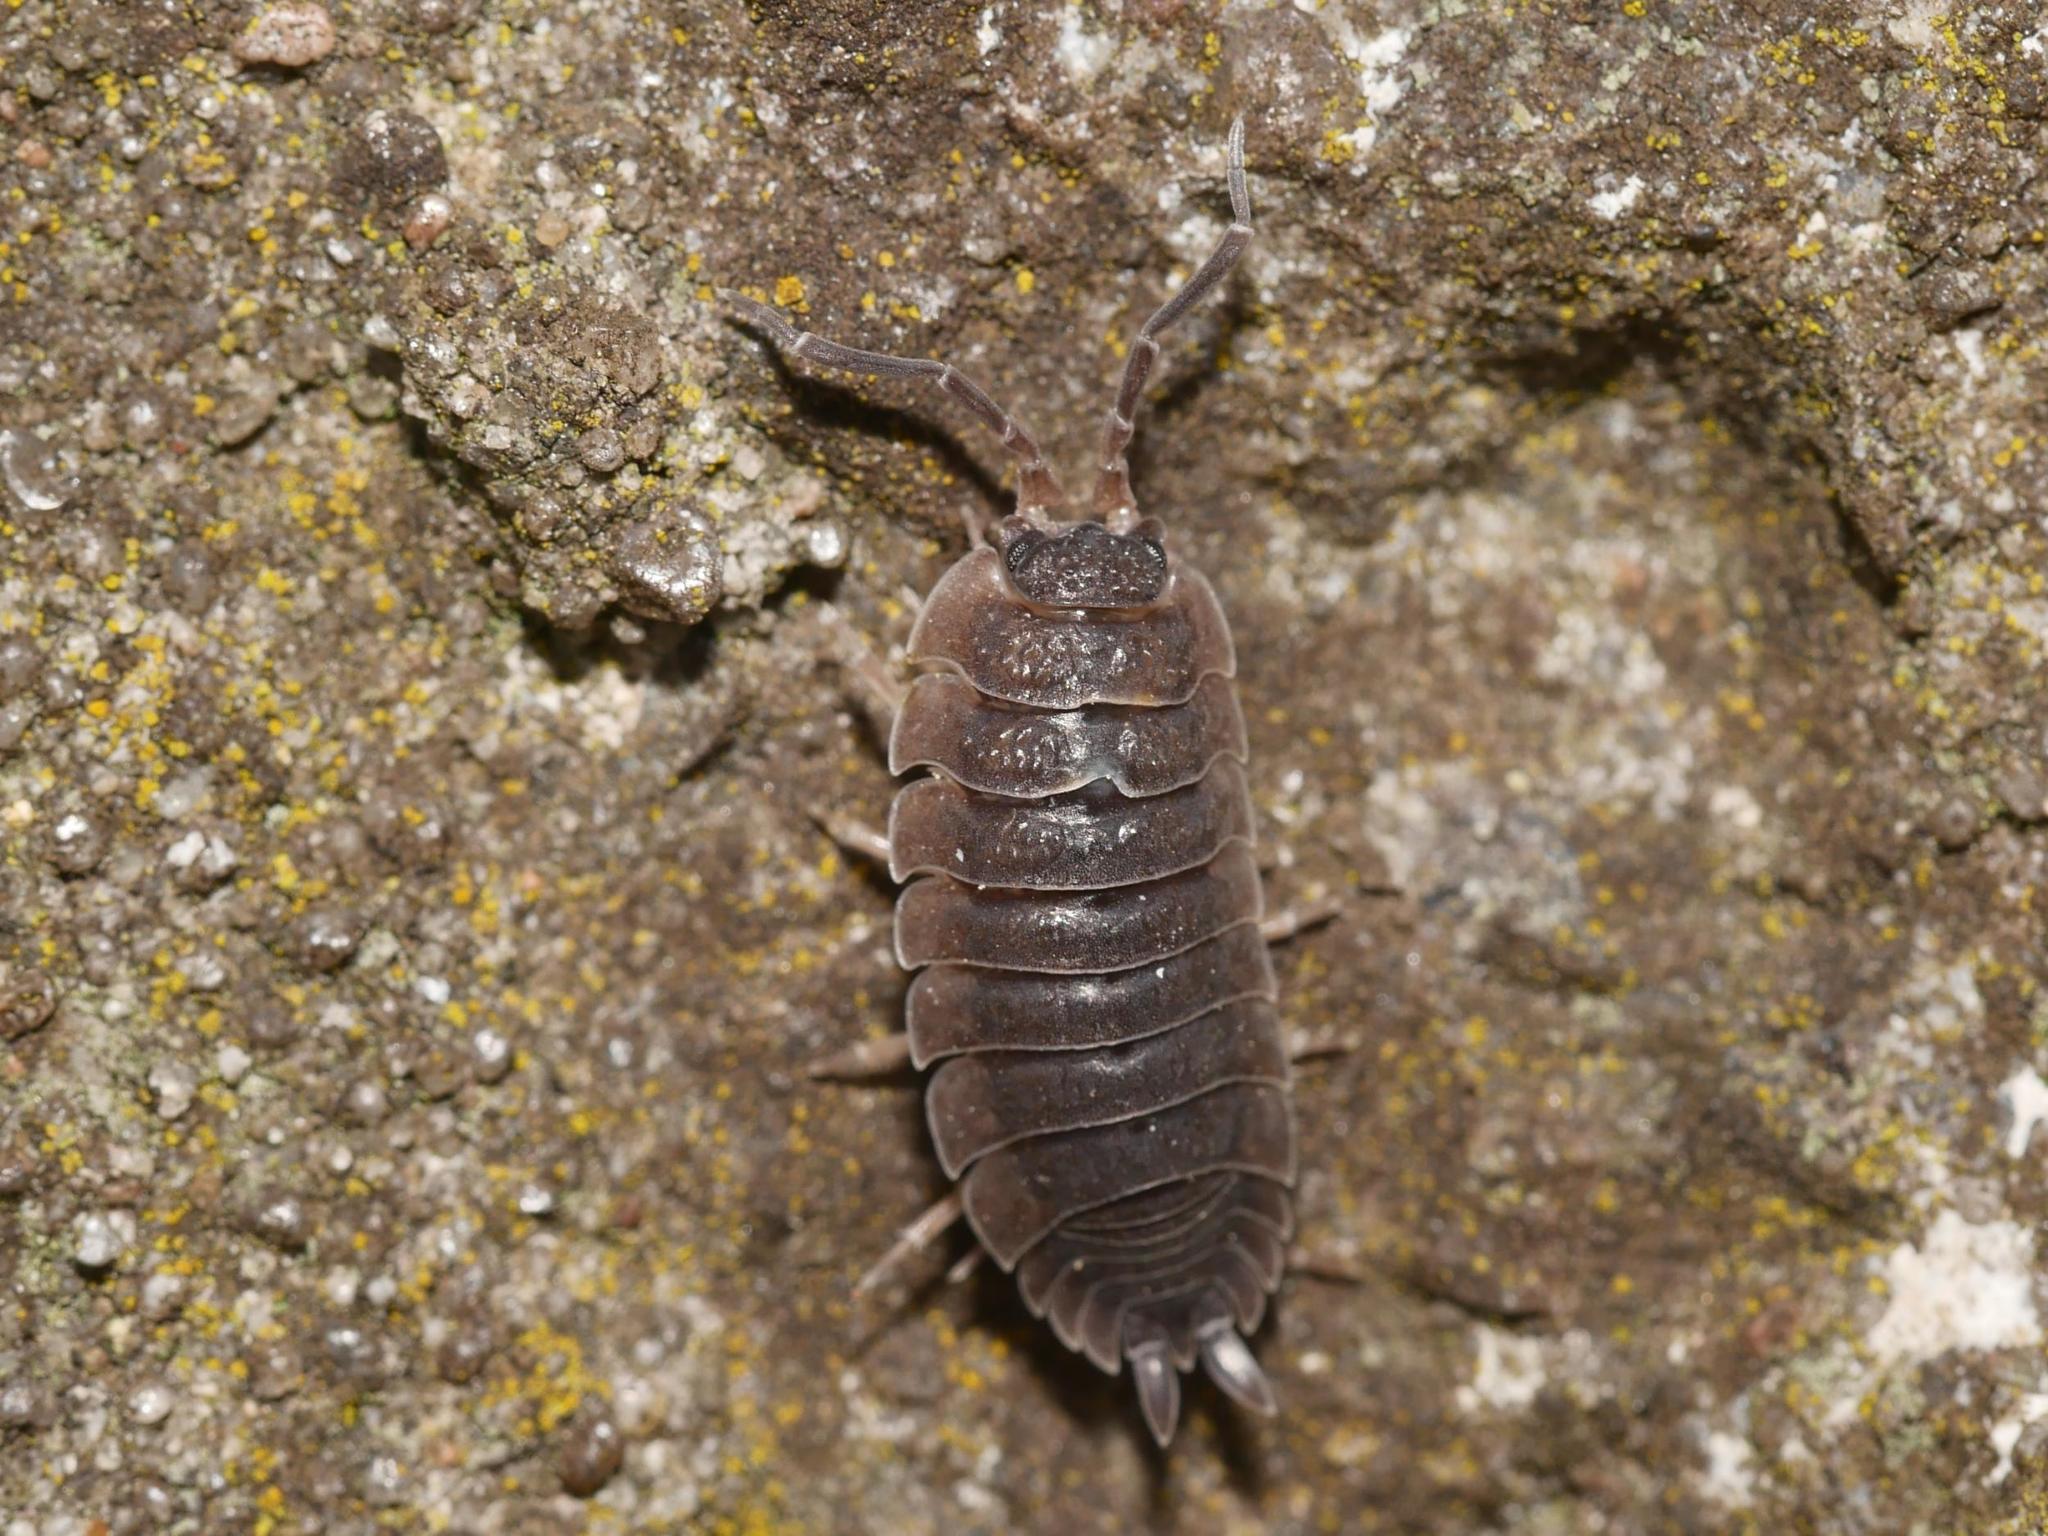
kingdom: Animalia
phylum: Arthropoda
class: Malacostraca
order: Isopoda
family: Porcellionidae
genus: Porcellio
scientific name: Porcellio scaber
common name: Common rough woodlouse
